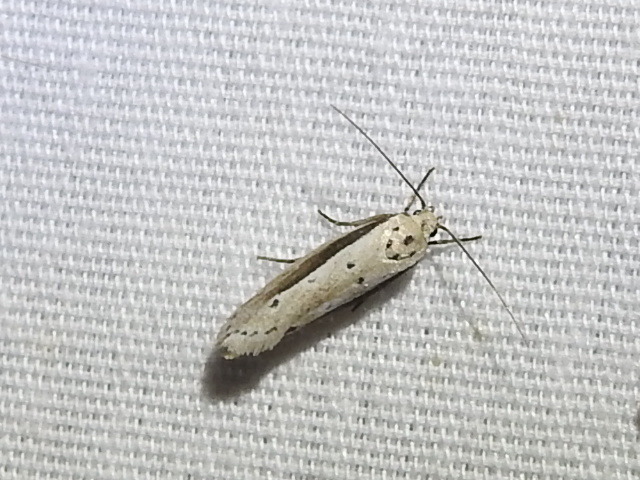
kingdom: Animalia
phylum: Arthropoda
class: Insecta
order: Lepidoptera
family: Ethmiidae
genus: Ethmia
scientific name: Ethmia mirusella
